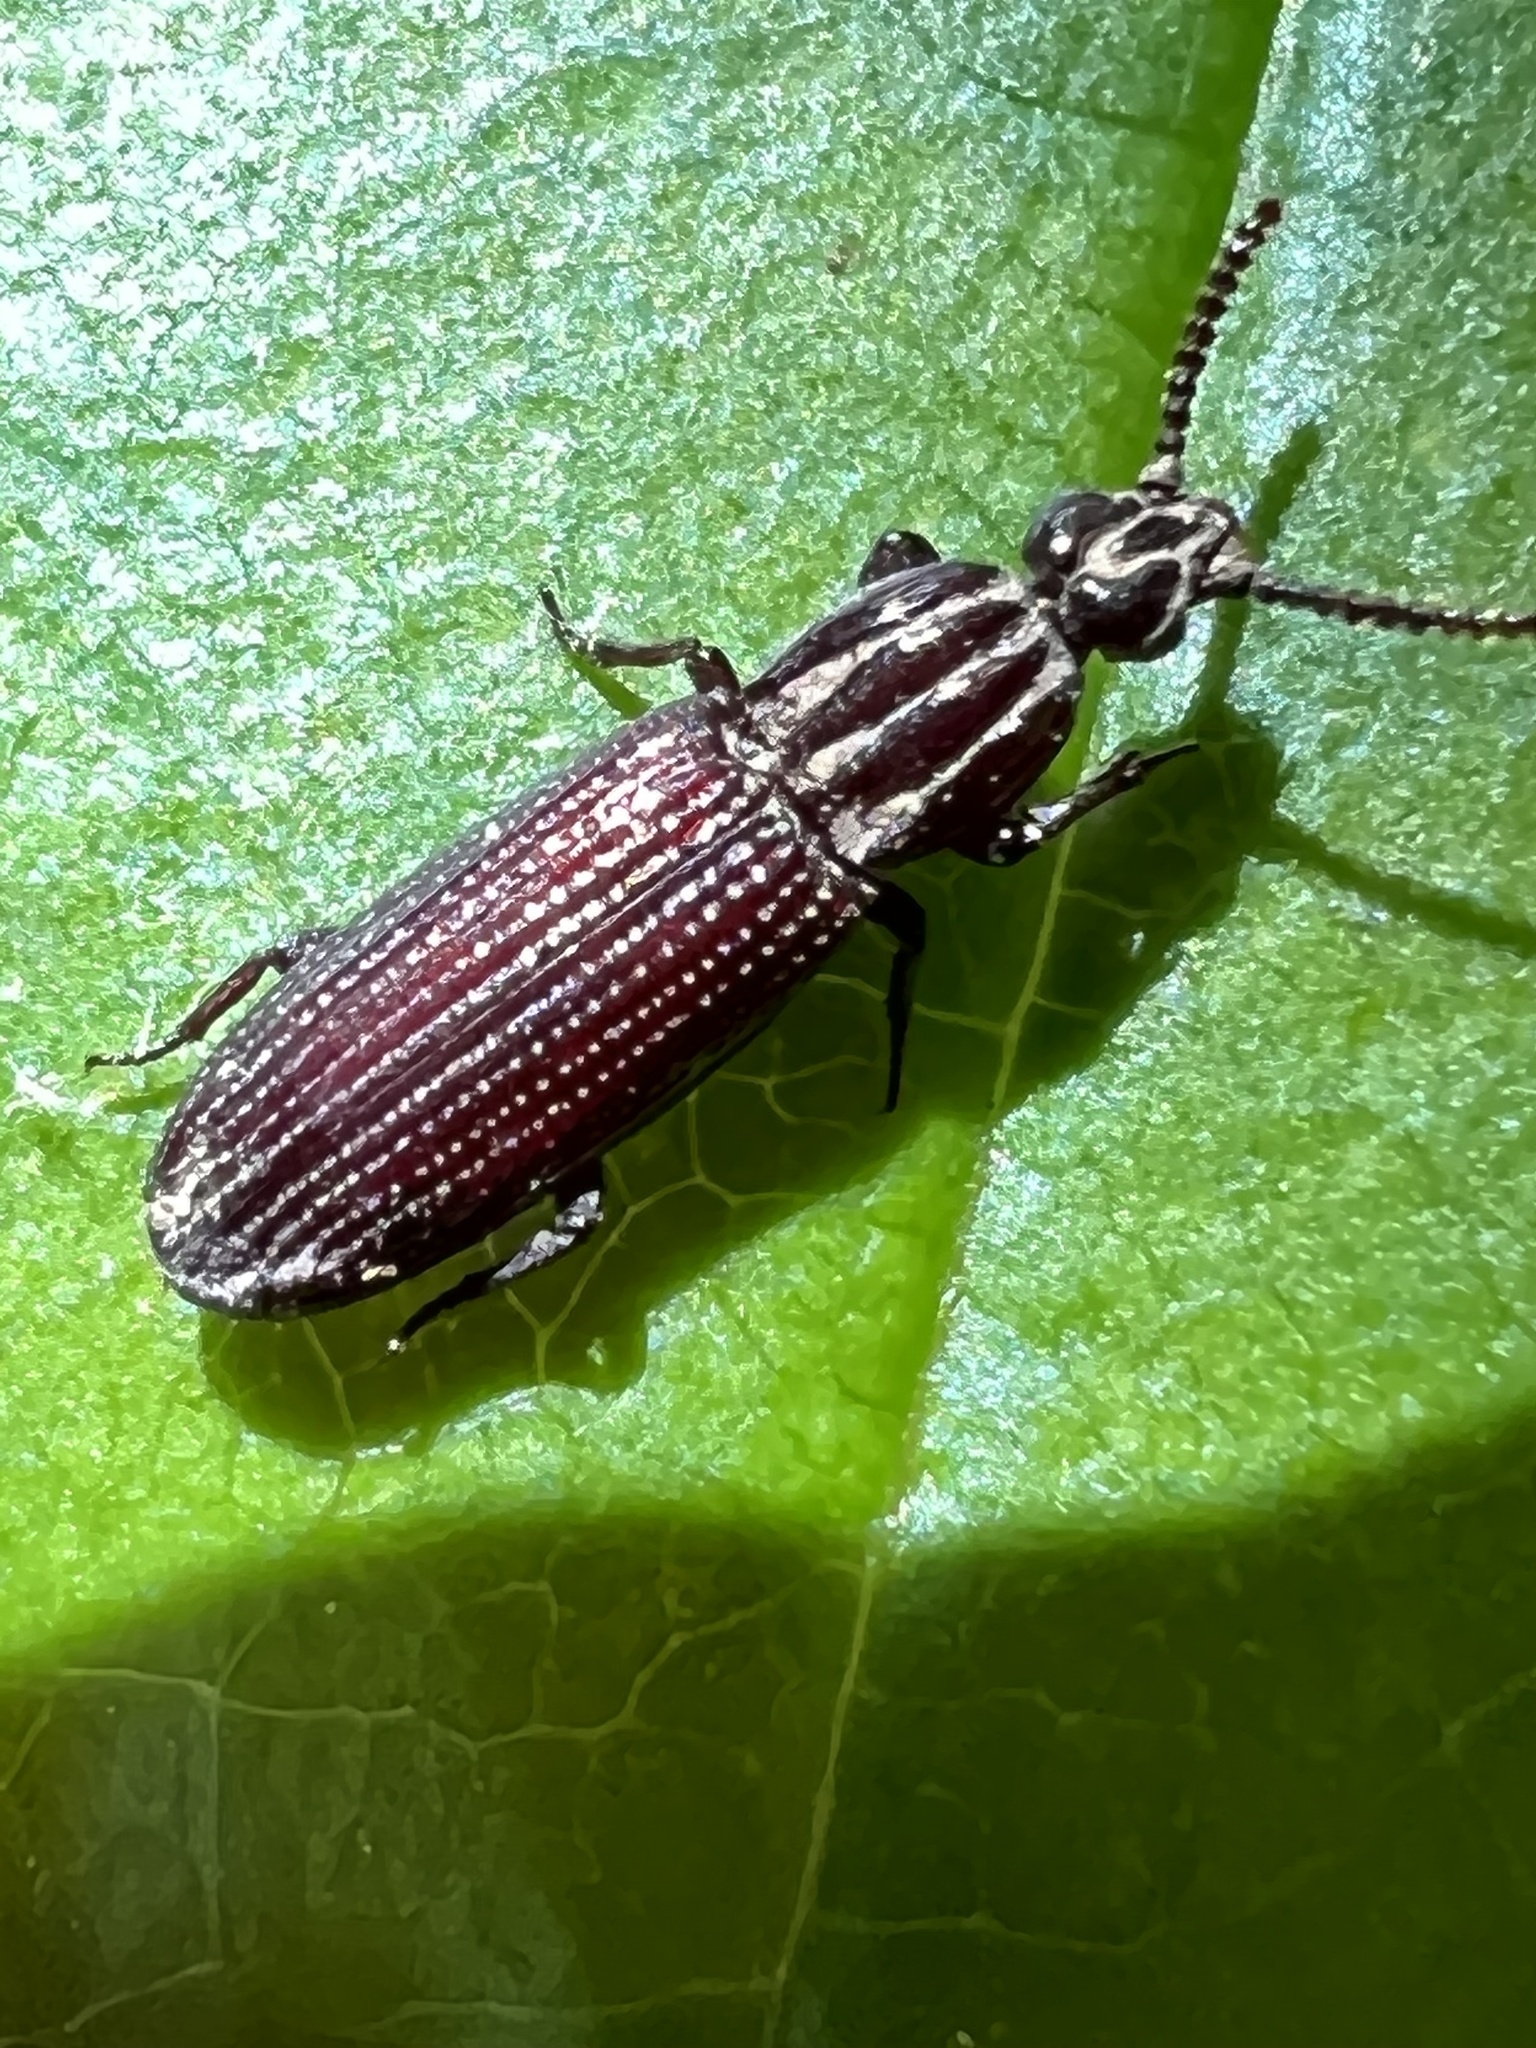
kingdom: Animalia
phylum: Arthropoda
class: Insecta
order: Coleoptera
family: Carabidae
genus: Omoglymmius
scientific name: Omoglymmius americanus
